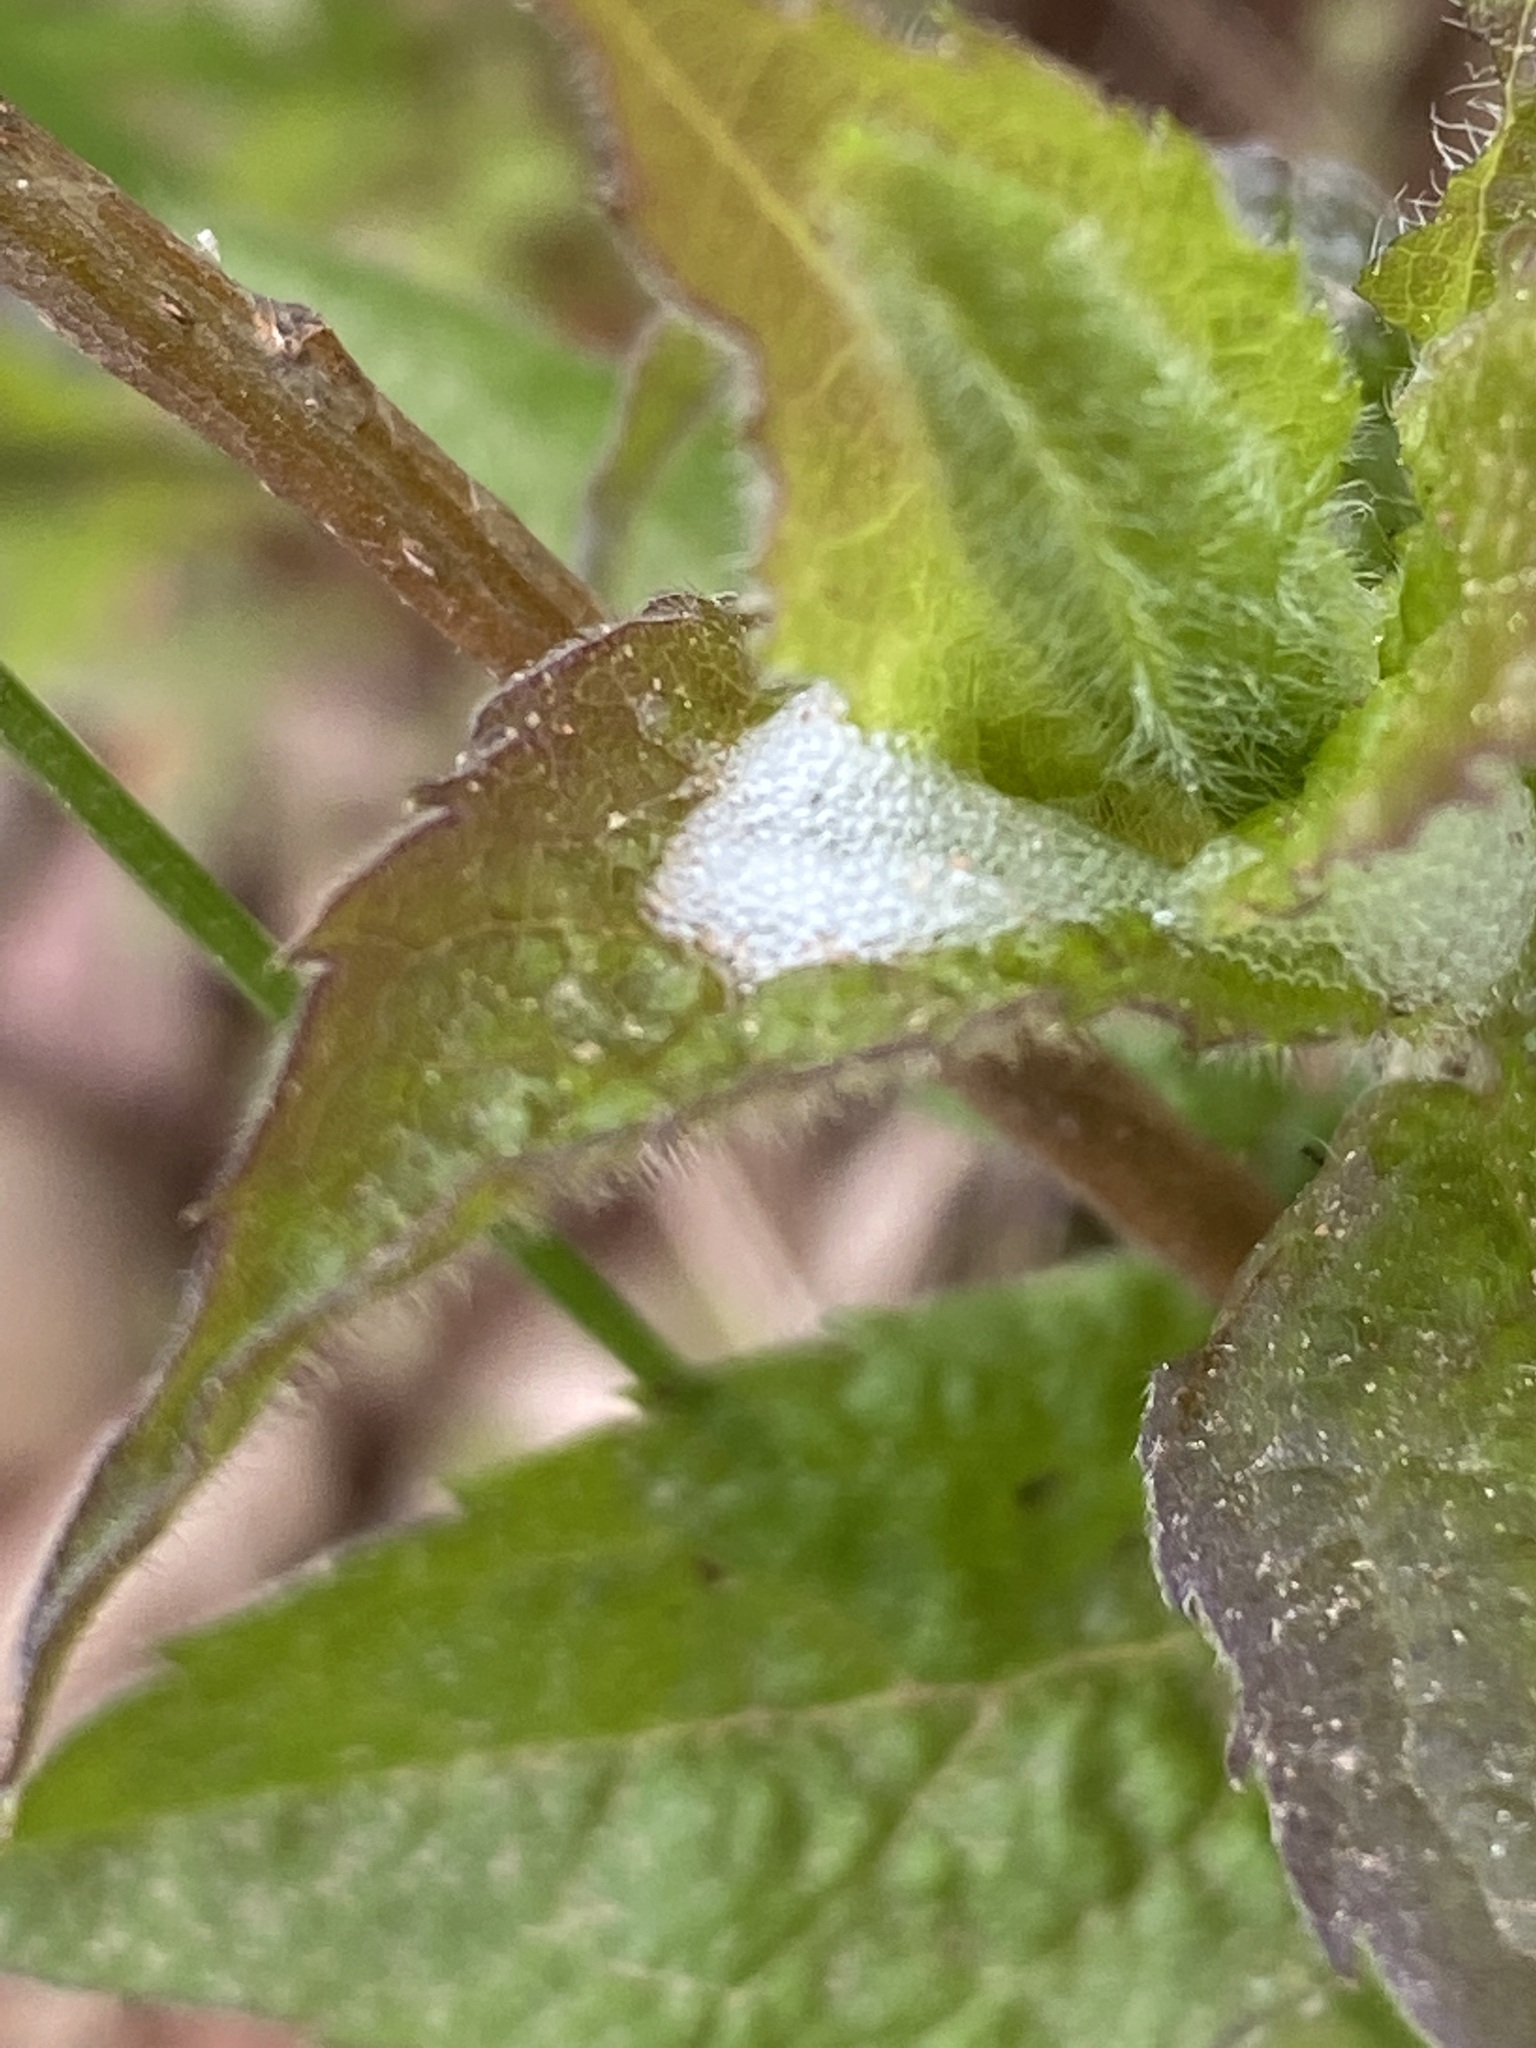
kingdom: Animalia
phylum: Arthropoda
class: Insecta
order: Hemiptera
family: Aphrophoridae
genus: Philaenus
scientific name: Philaenus spumarius
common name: Meadow spittlebug
